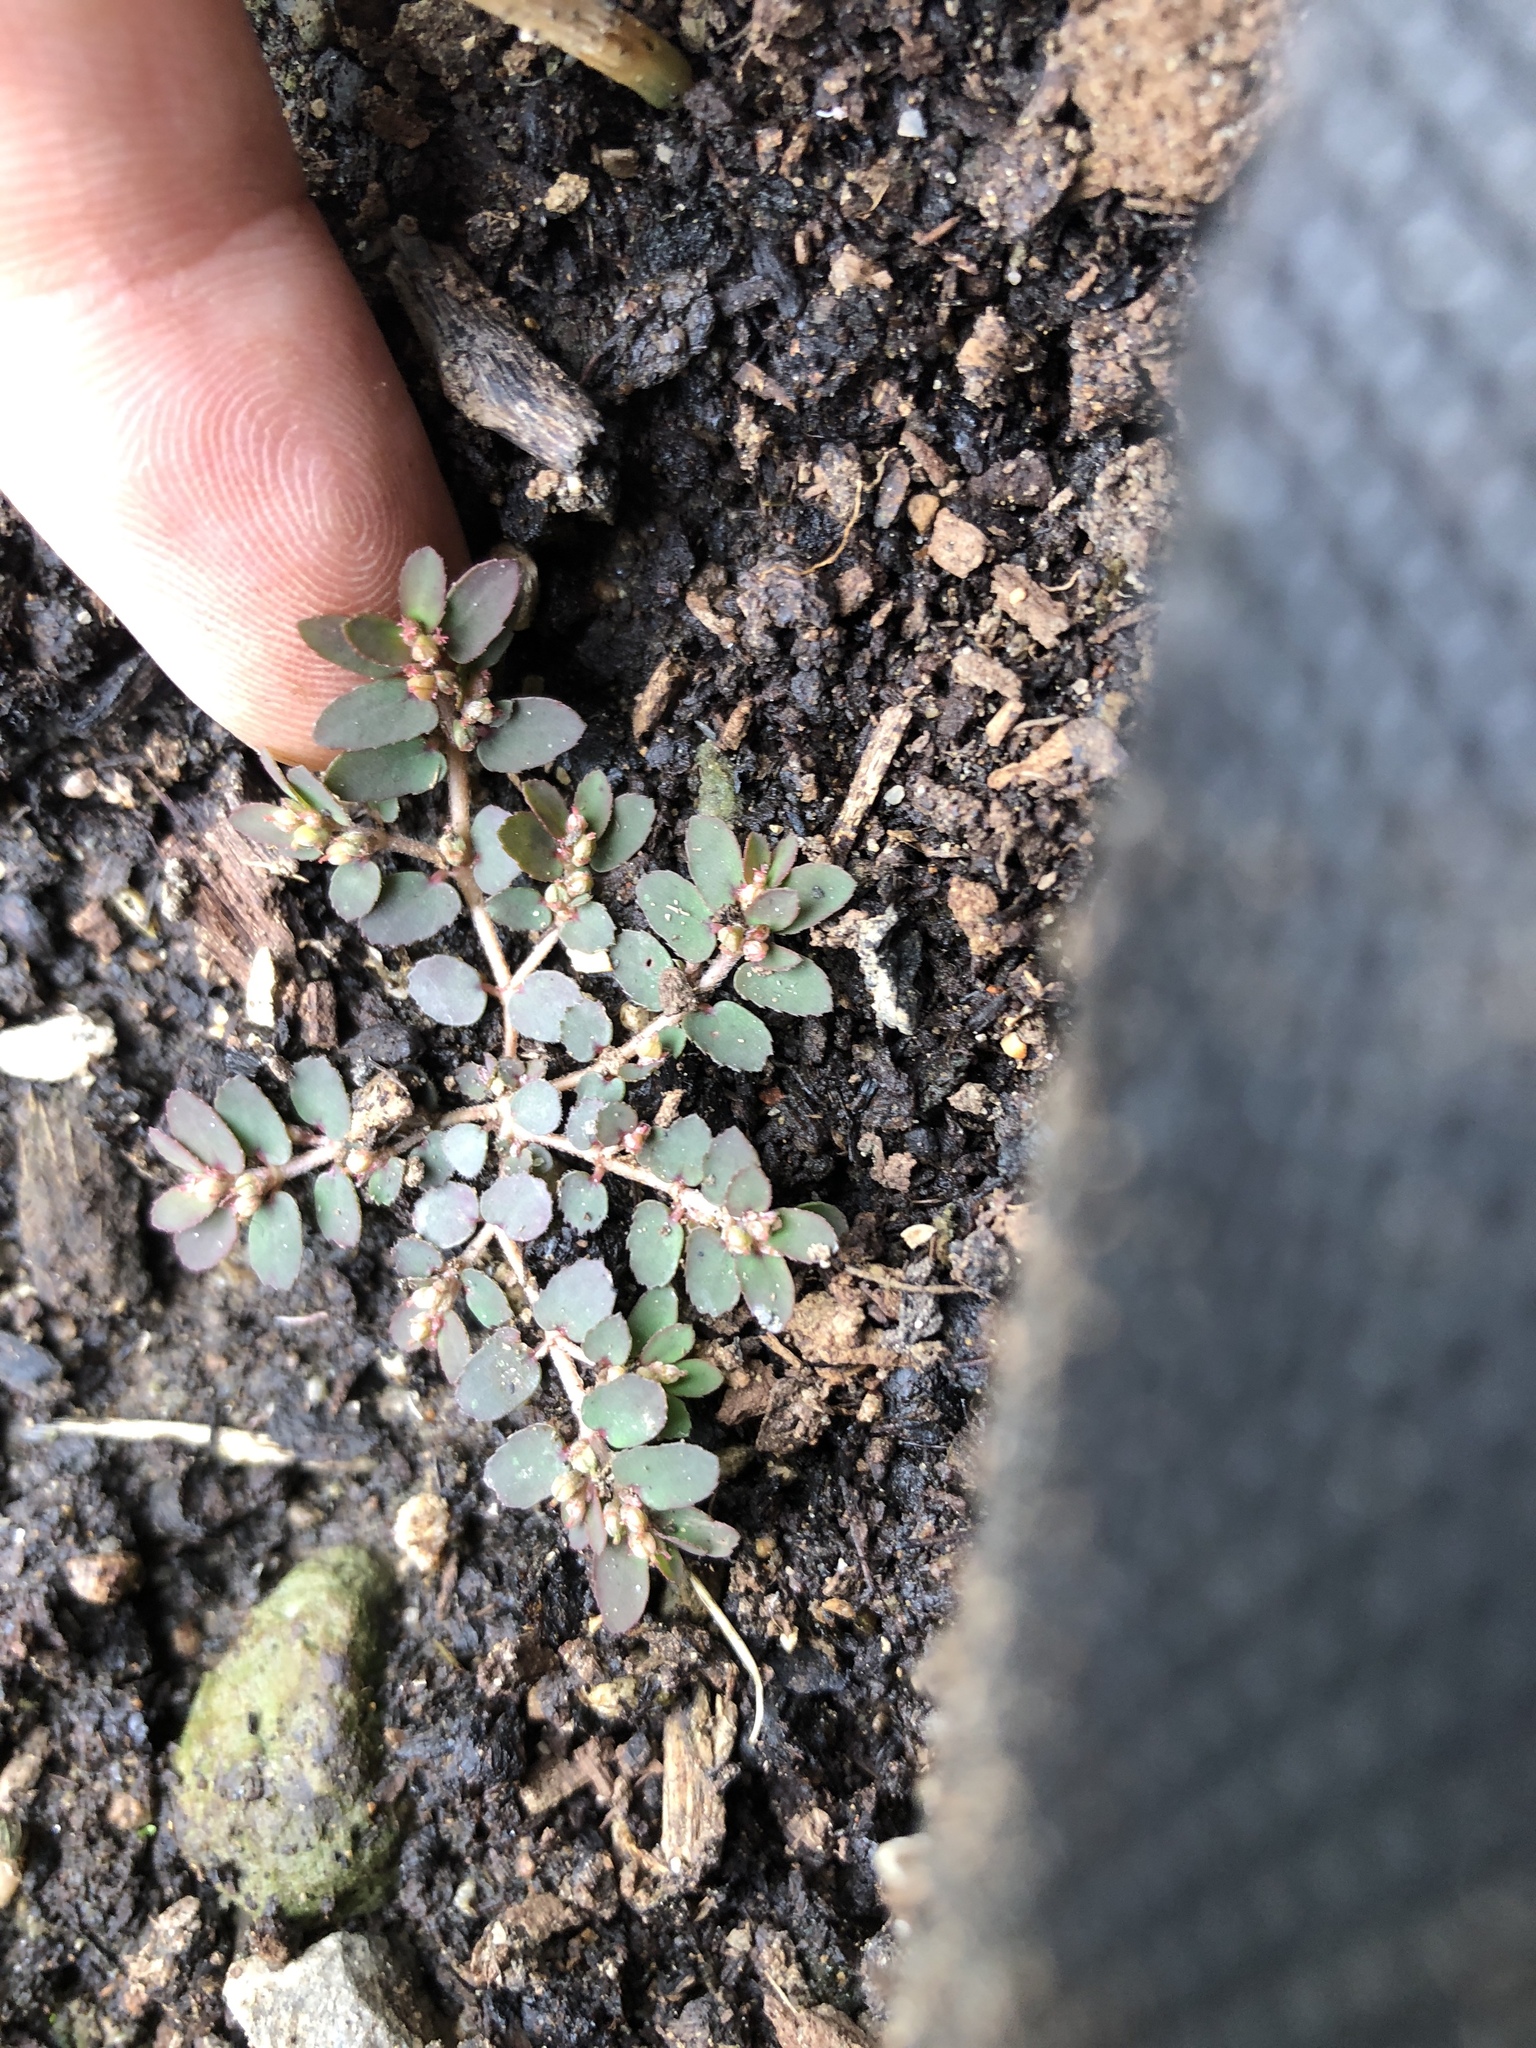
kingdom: Plantae
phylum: Tracheophyta
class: Magnoliopsida
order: Malpighiales
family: Euphorbiaceae
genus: Euphorbia
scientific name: Euphorbia thymifolia
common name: Gulf sandmat
